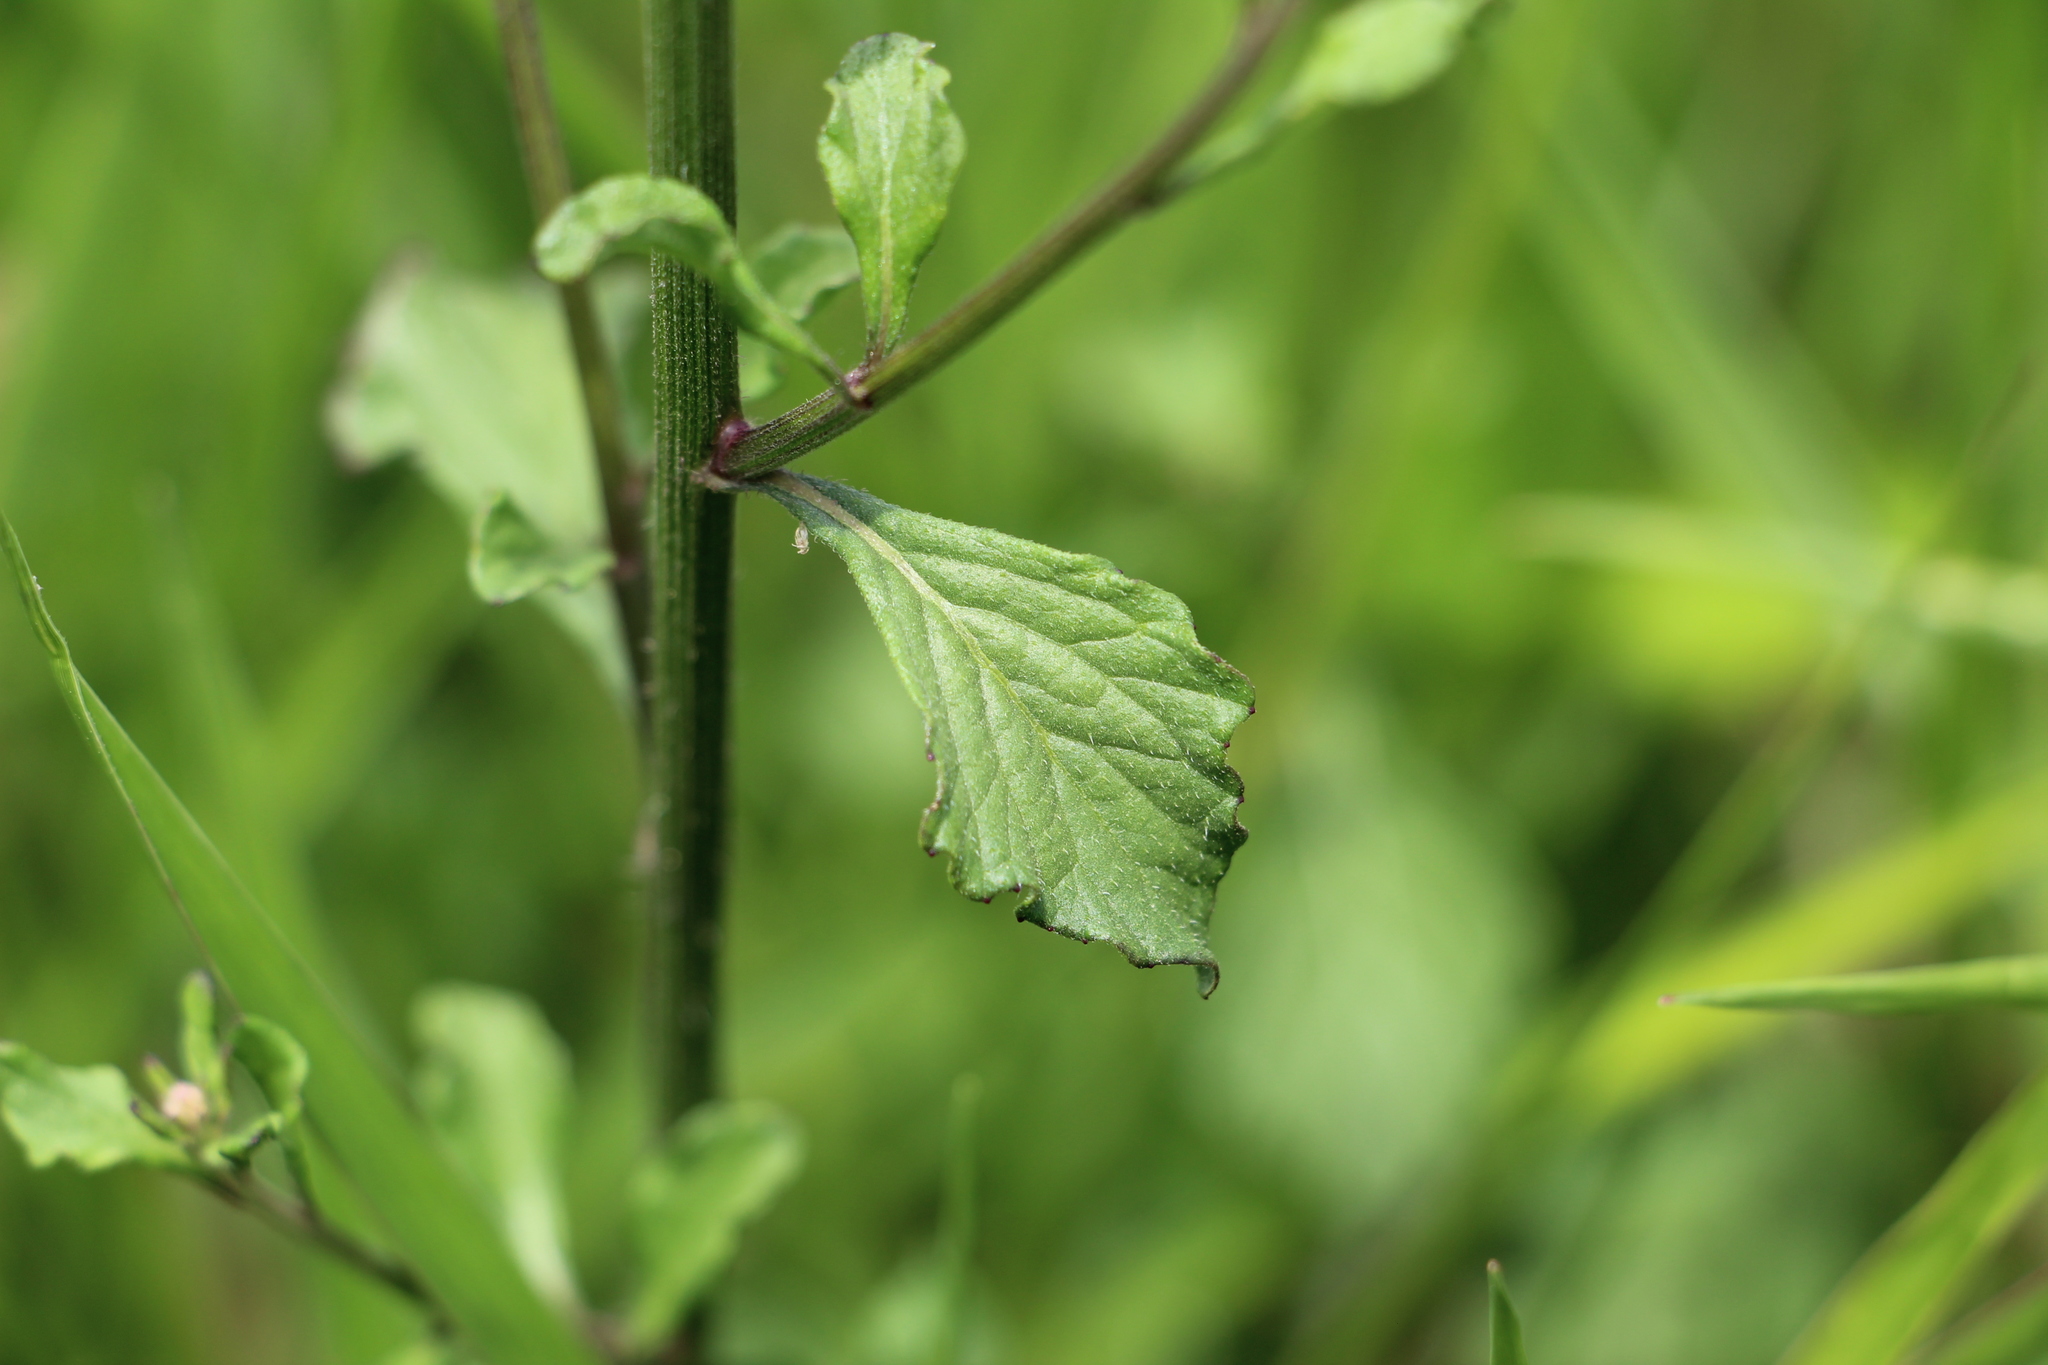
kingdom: Plantae
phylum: Tracheophyta
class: Magnoliopsida
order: Asterales
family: Asteraceae
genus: Cyanthillium
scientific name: Cyanthillium cinereum
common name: Little ironweed
